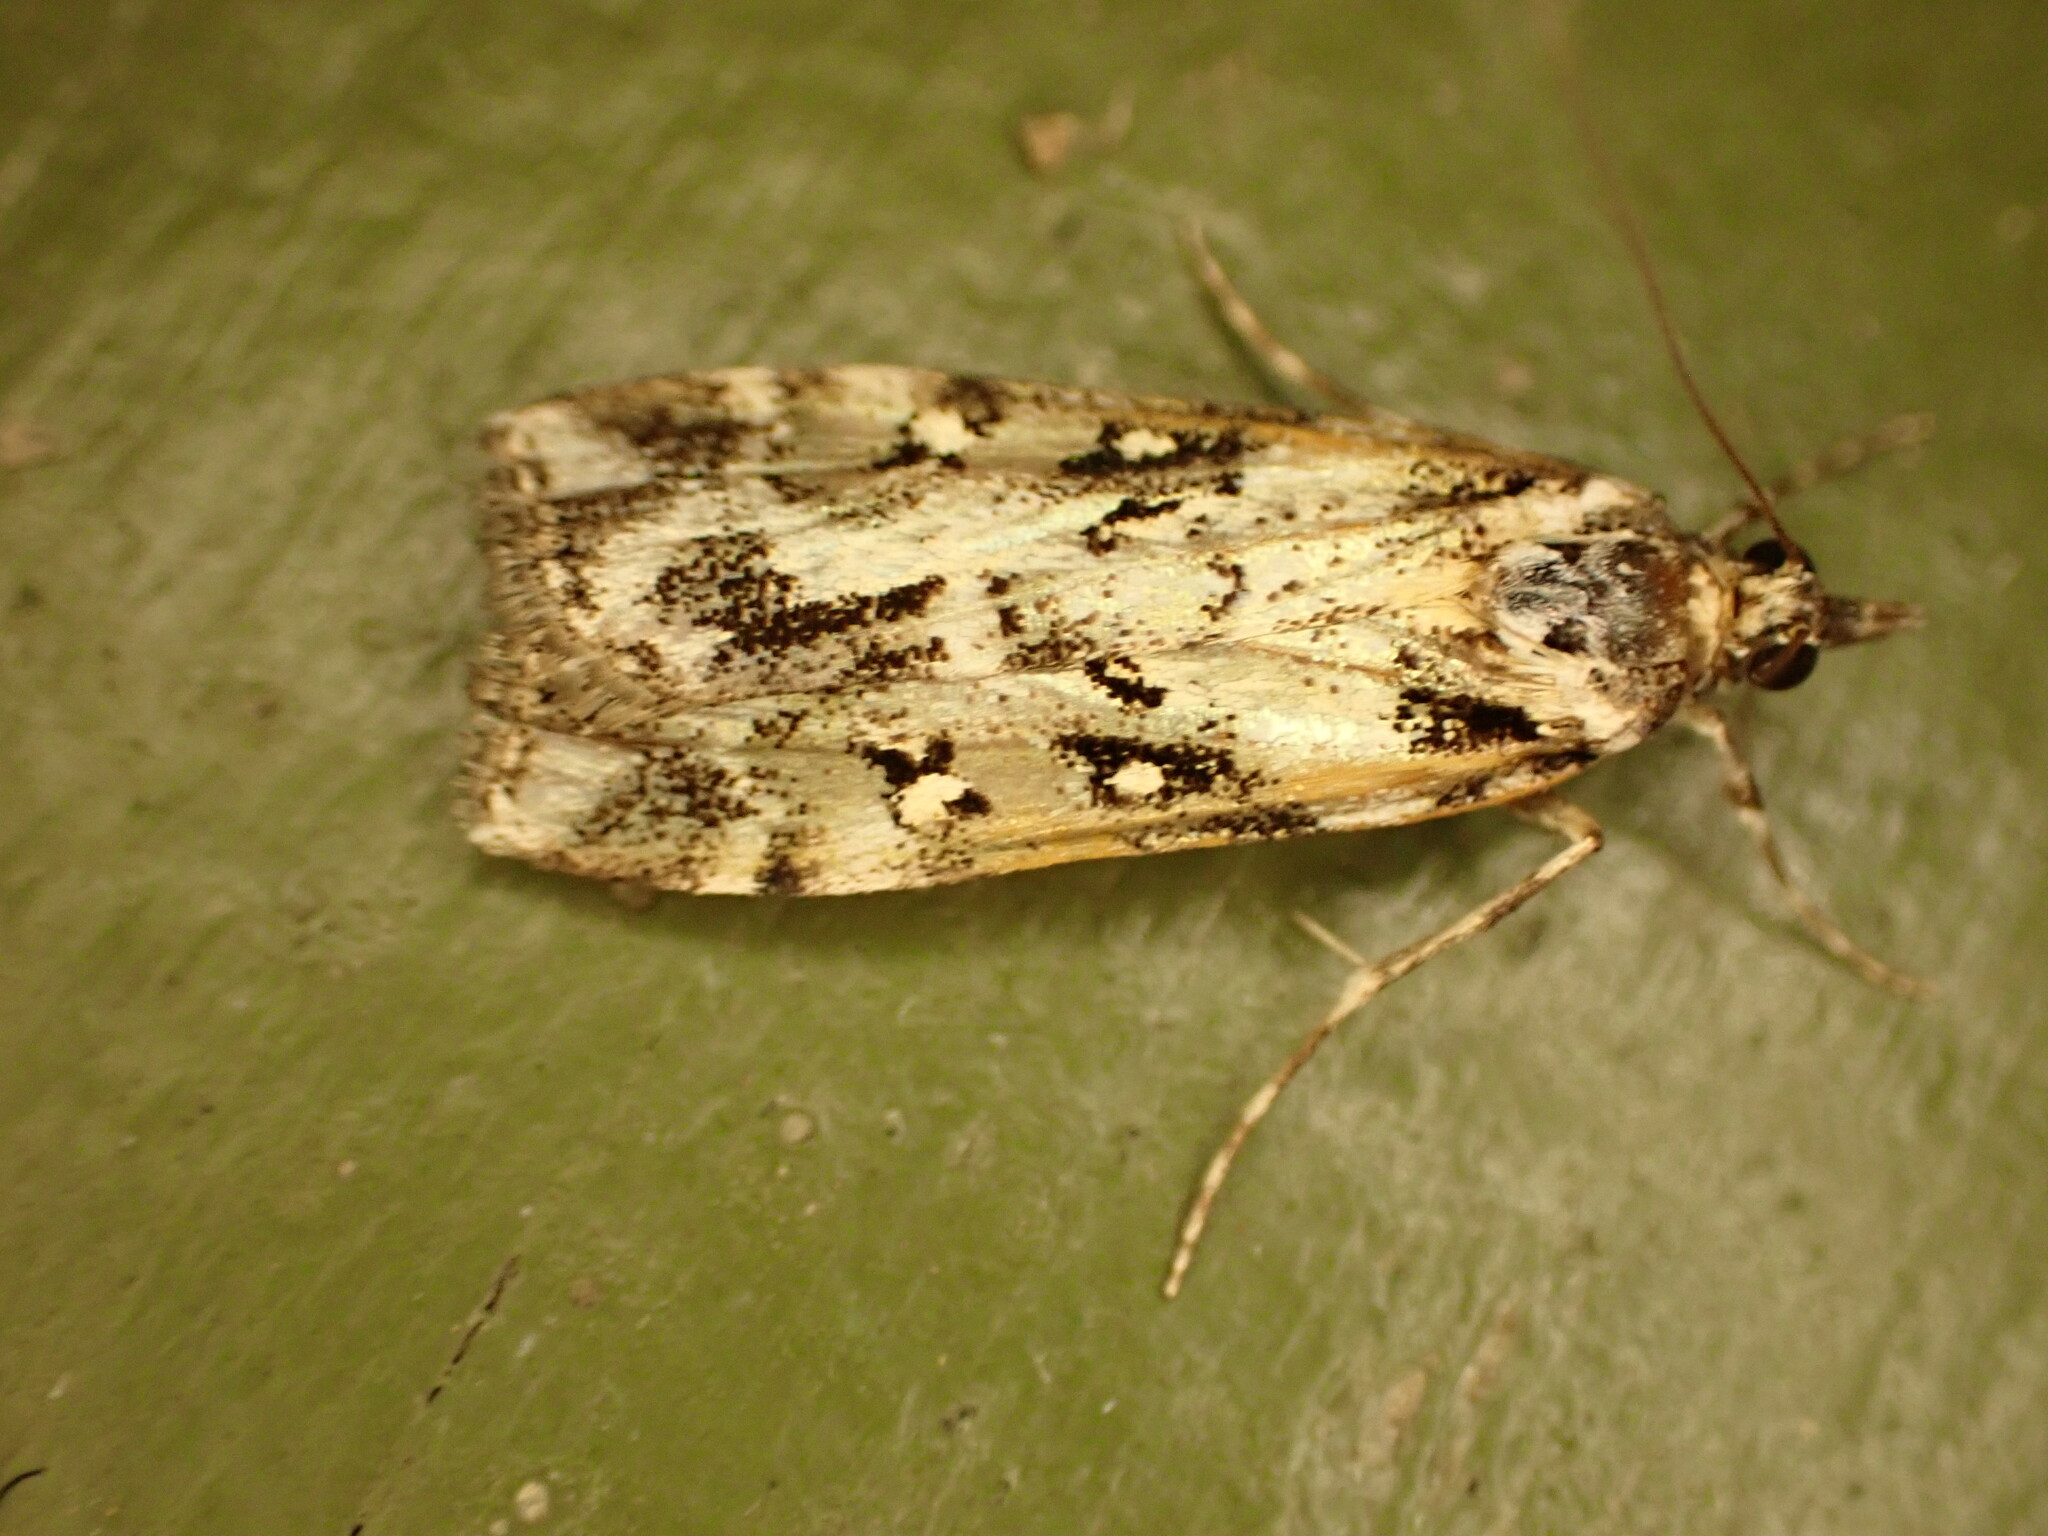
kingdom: Animalia
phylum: Arthropoda
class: Insecta
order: Lepidoptera
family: Crambidae
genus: Eudonia
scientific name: Eudonia diphtheralis
